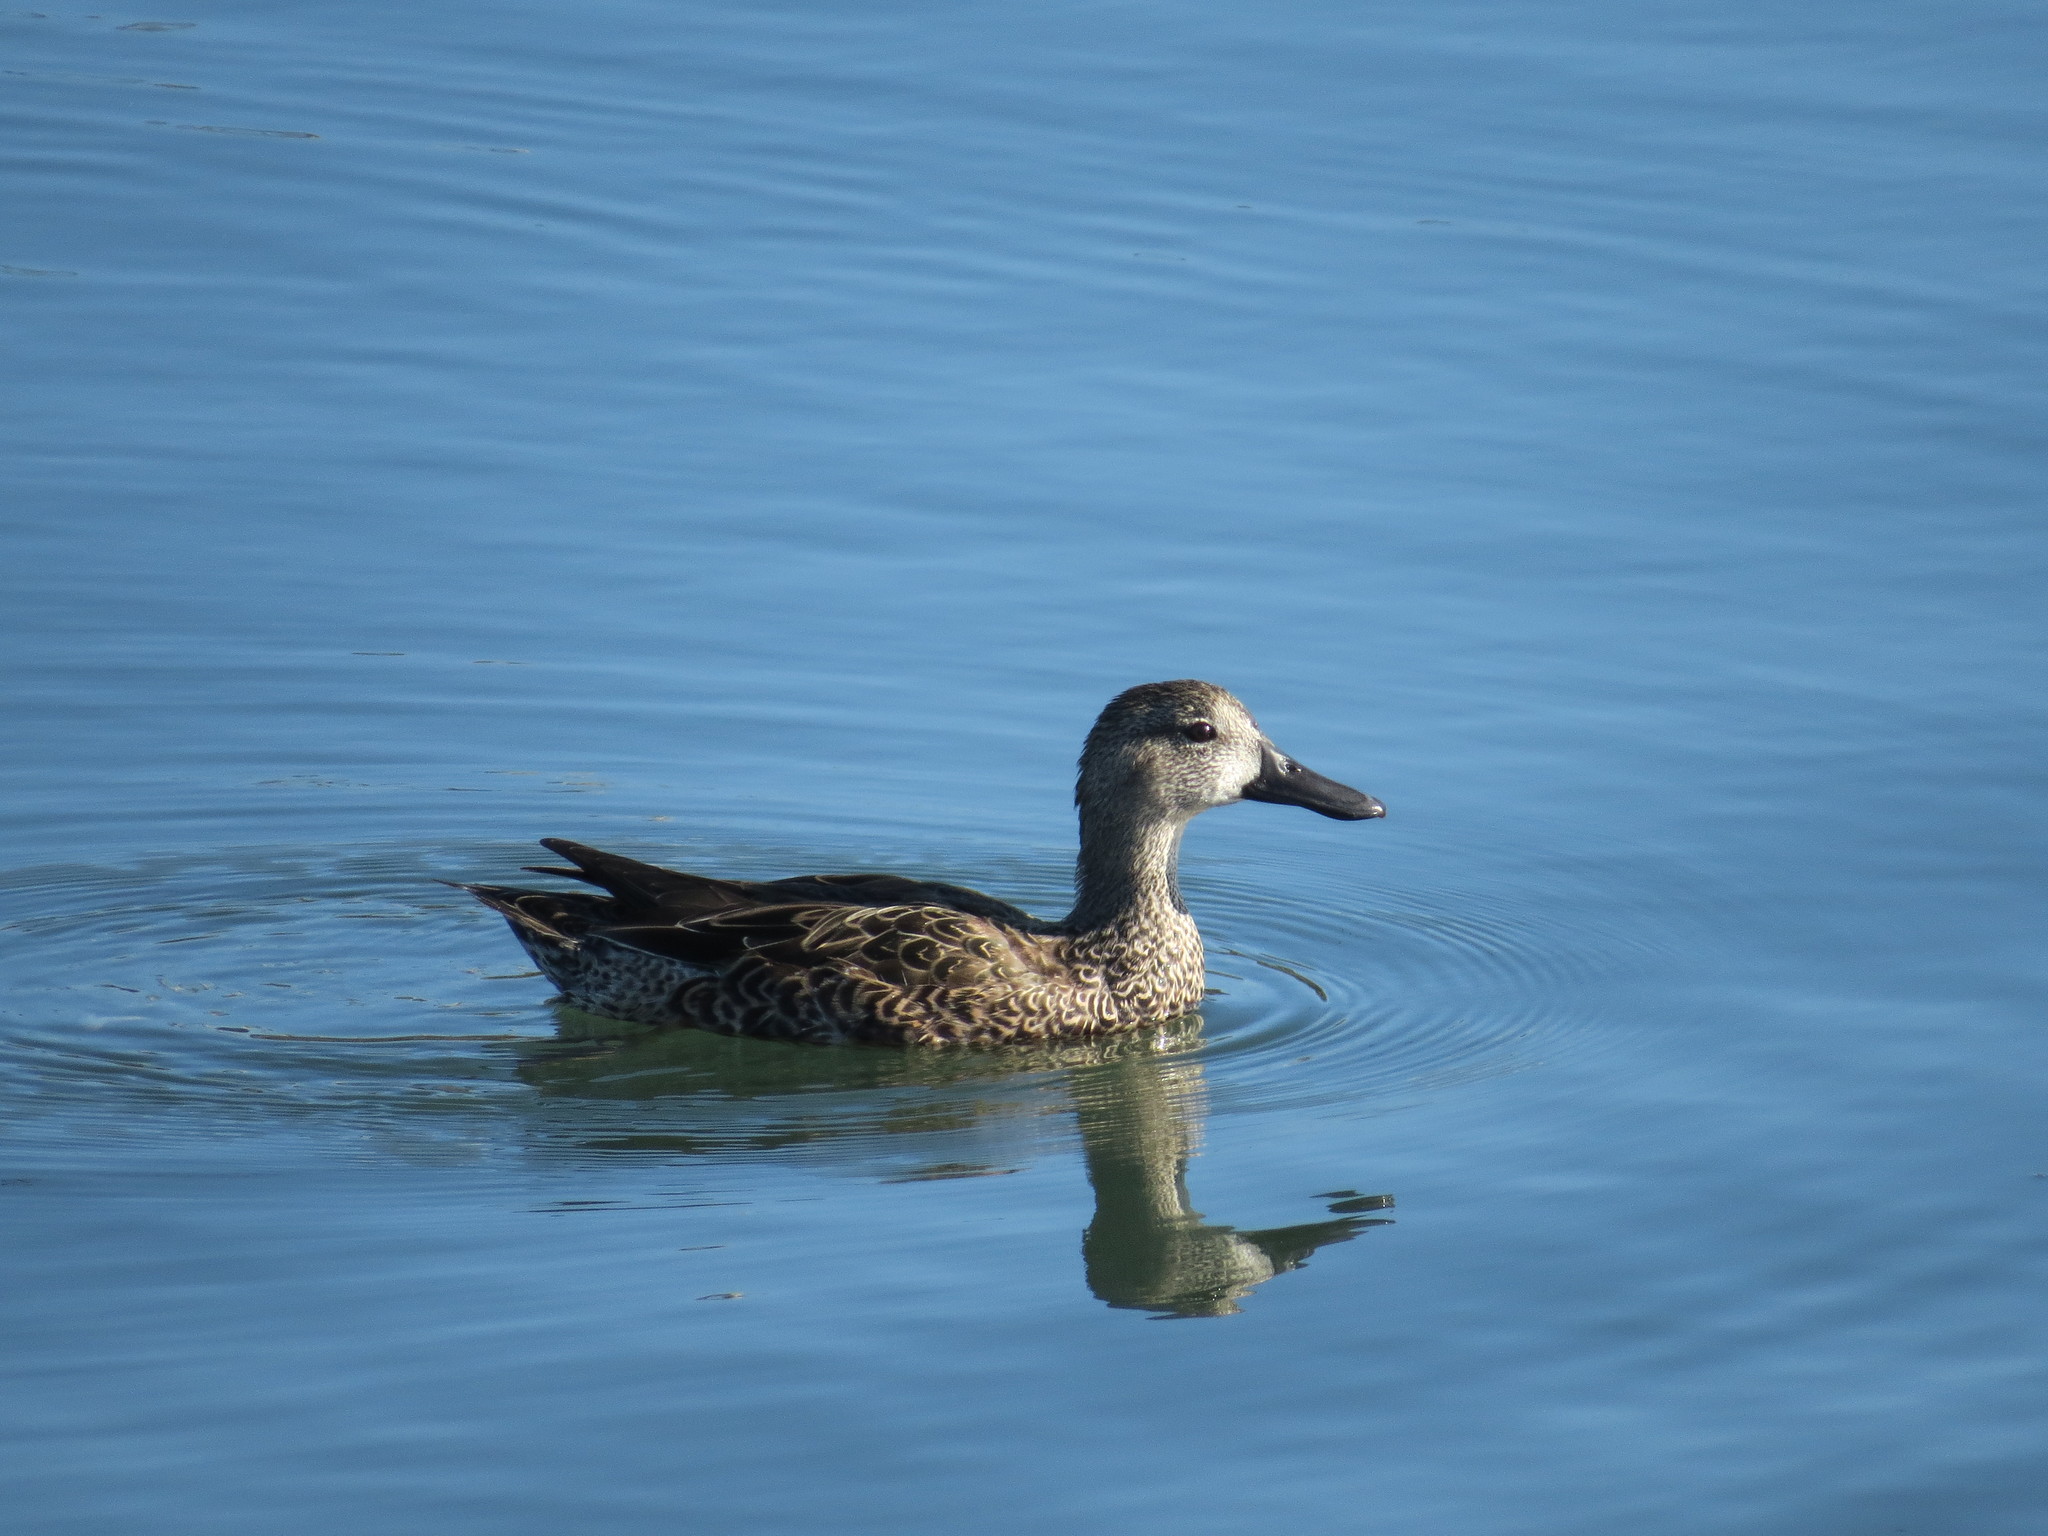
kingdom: Animalia
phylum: Chordata
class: Aves
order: Anseriformes
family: Anatidae
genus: Spatula
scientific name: Spatula cyanoptera
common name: Cinnamon teal
